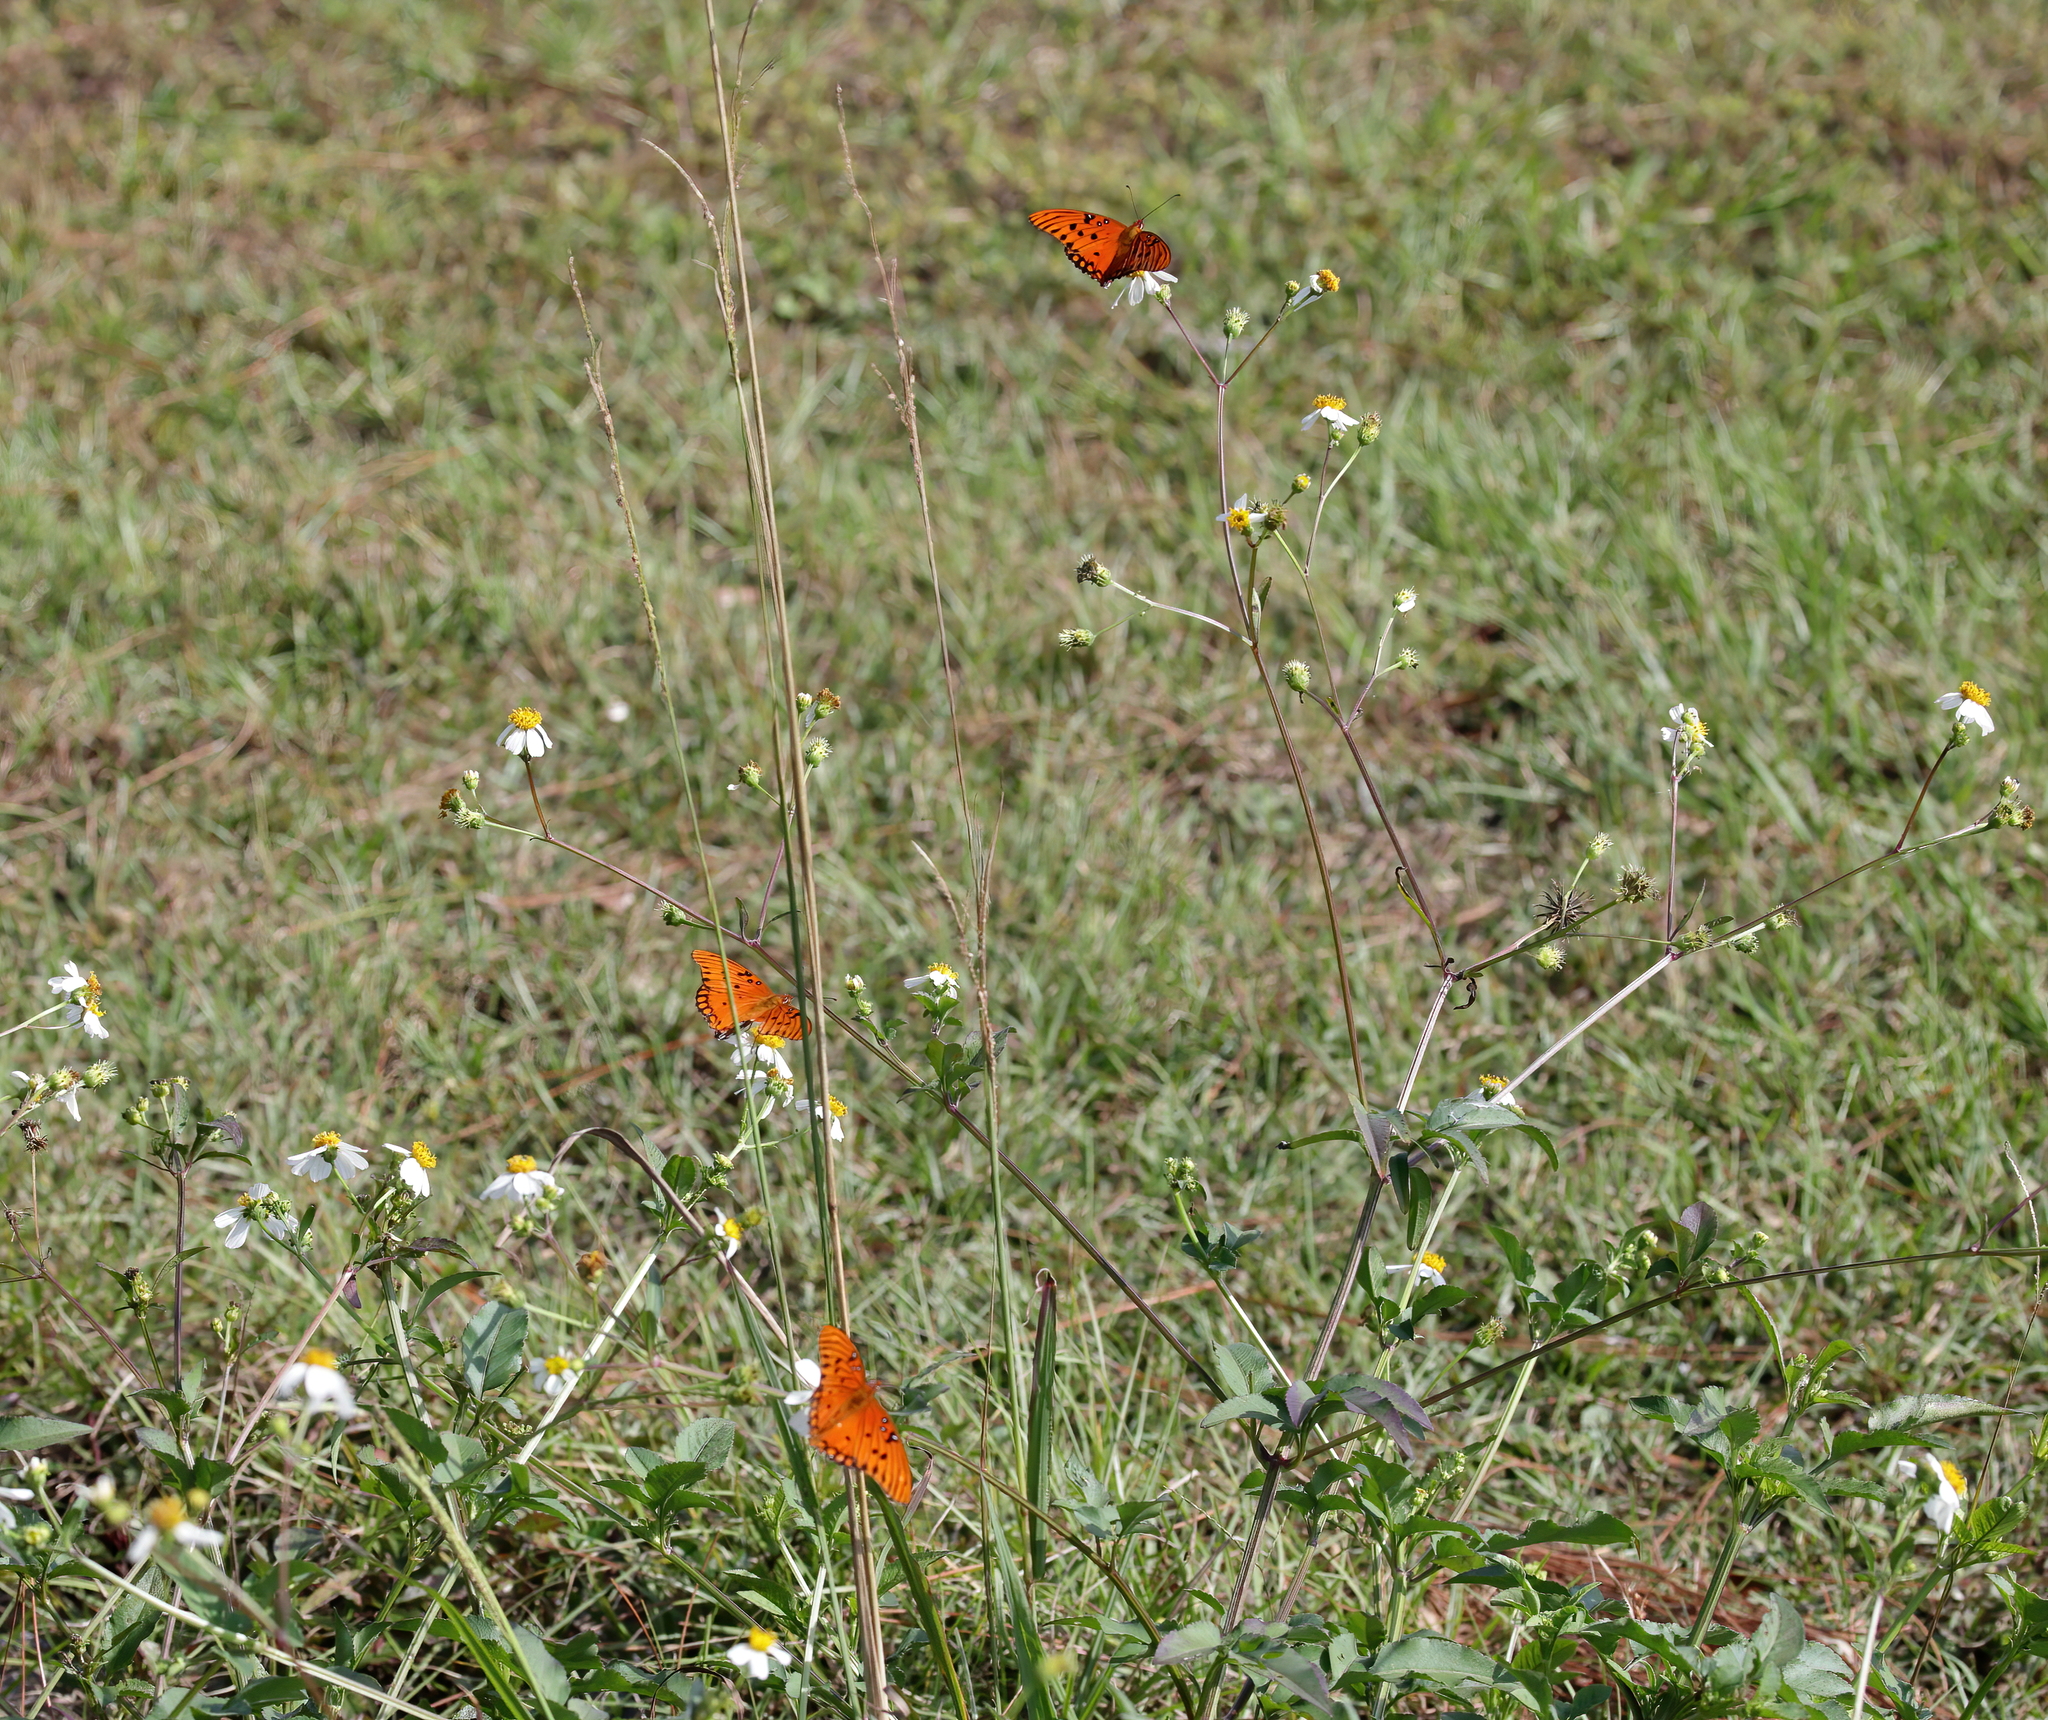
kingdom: Animalia
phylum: Arthropoda
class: Insecta
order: Lepidoptera
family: Nymphalidae
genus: Dione
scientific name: Dione vanillae
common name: Gulf fritillary
